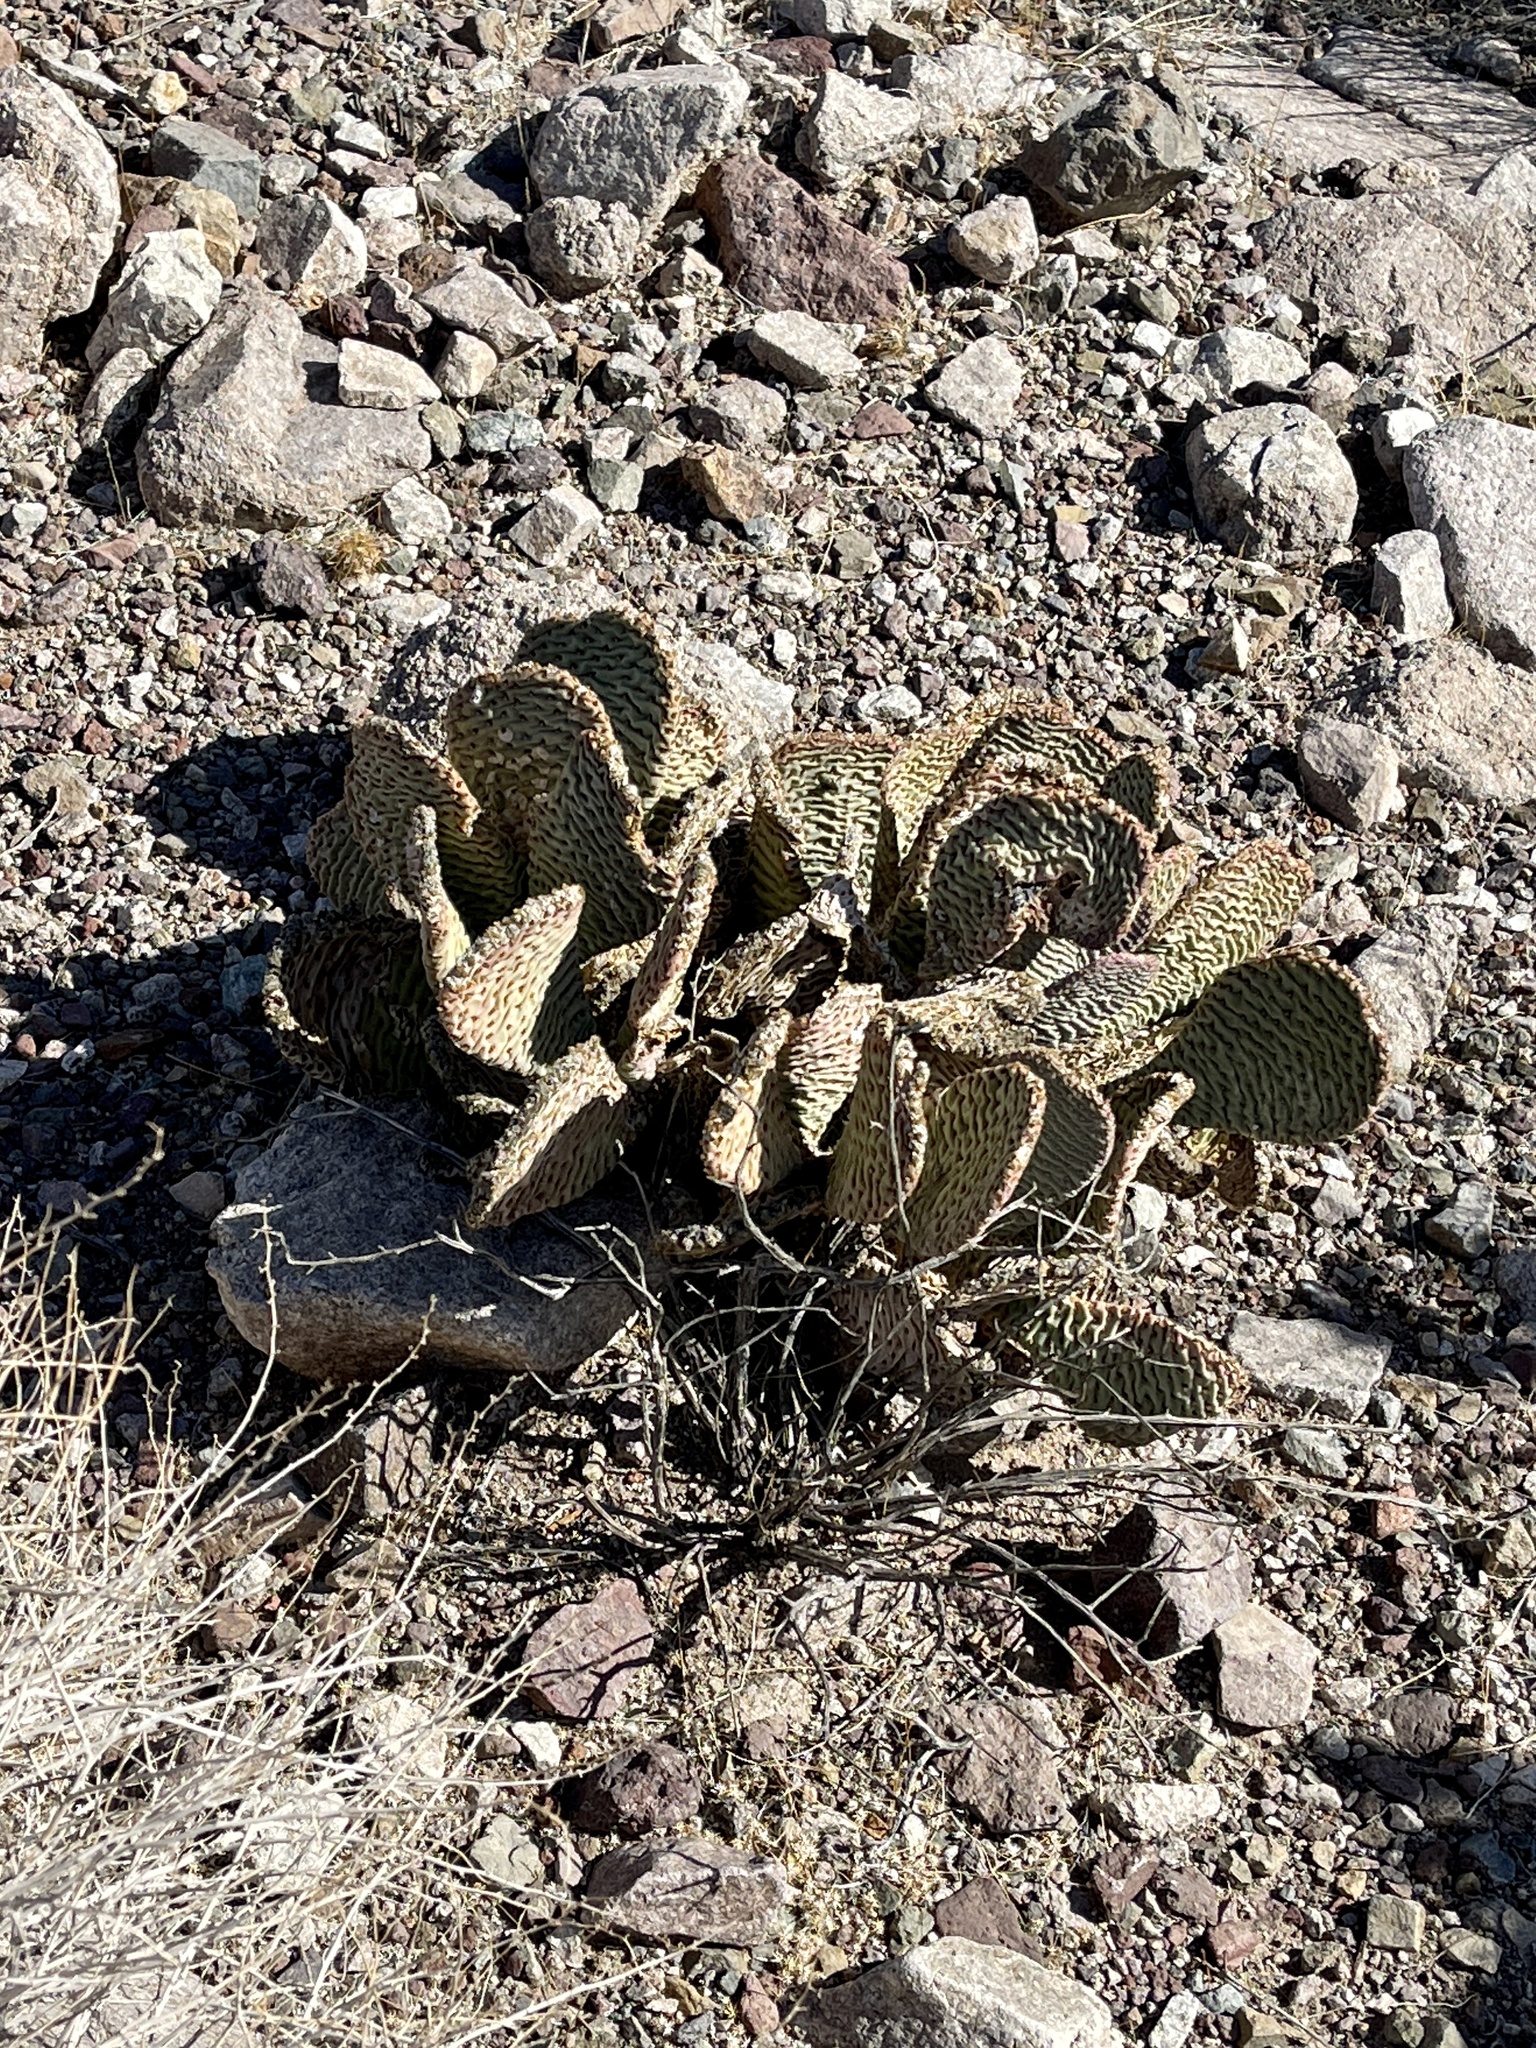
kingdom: Plantae
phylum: Tracheophyta
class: Magnoliopsida
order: Caryophyllales
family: Cactaceae
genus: Opuntia
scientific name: Opuntia basilaris
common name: Beavertail prickly-pear
